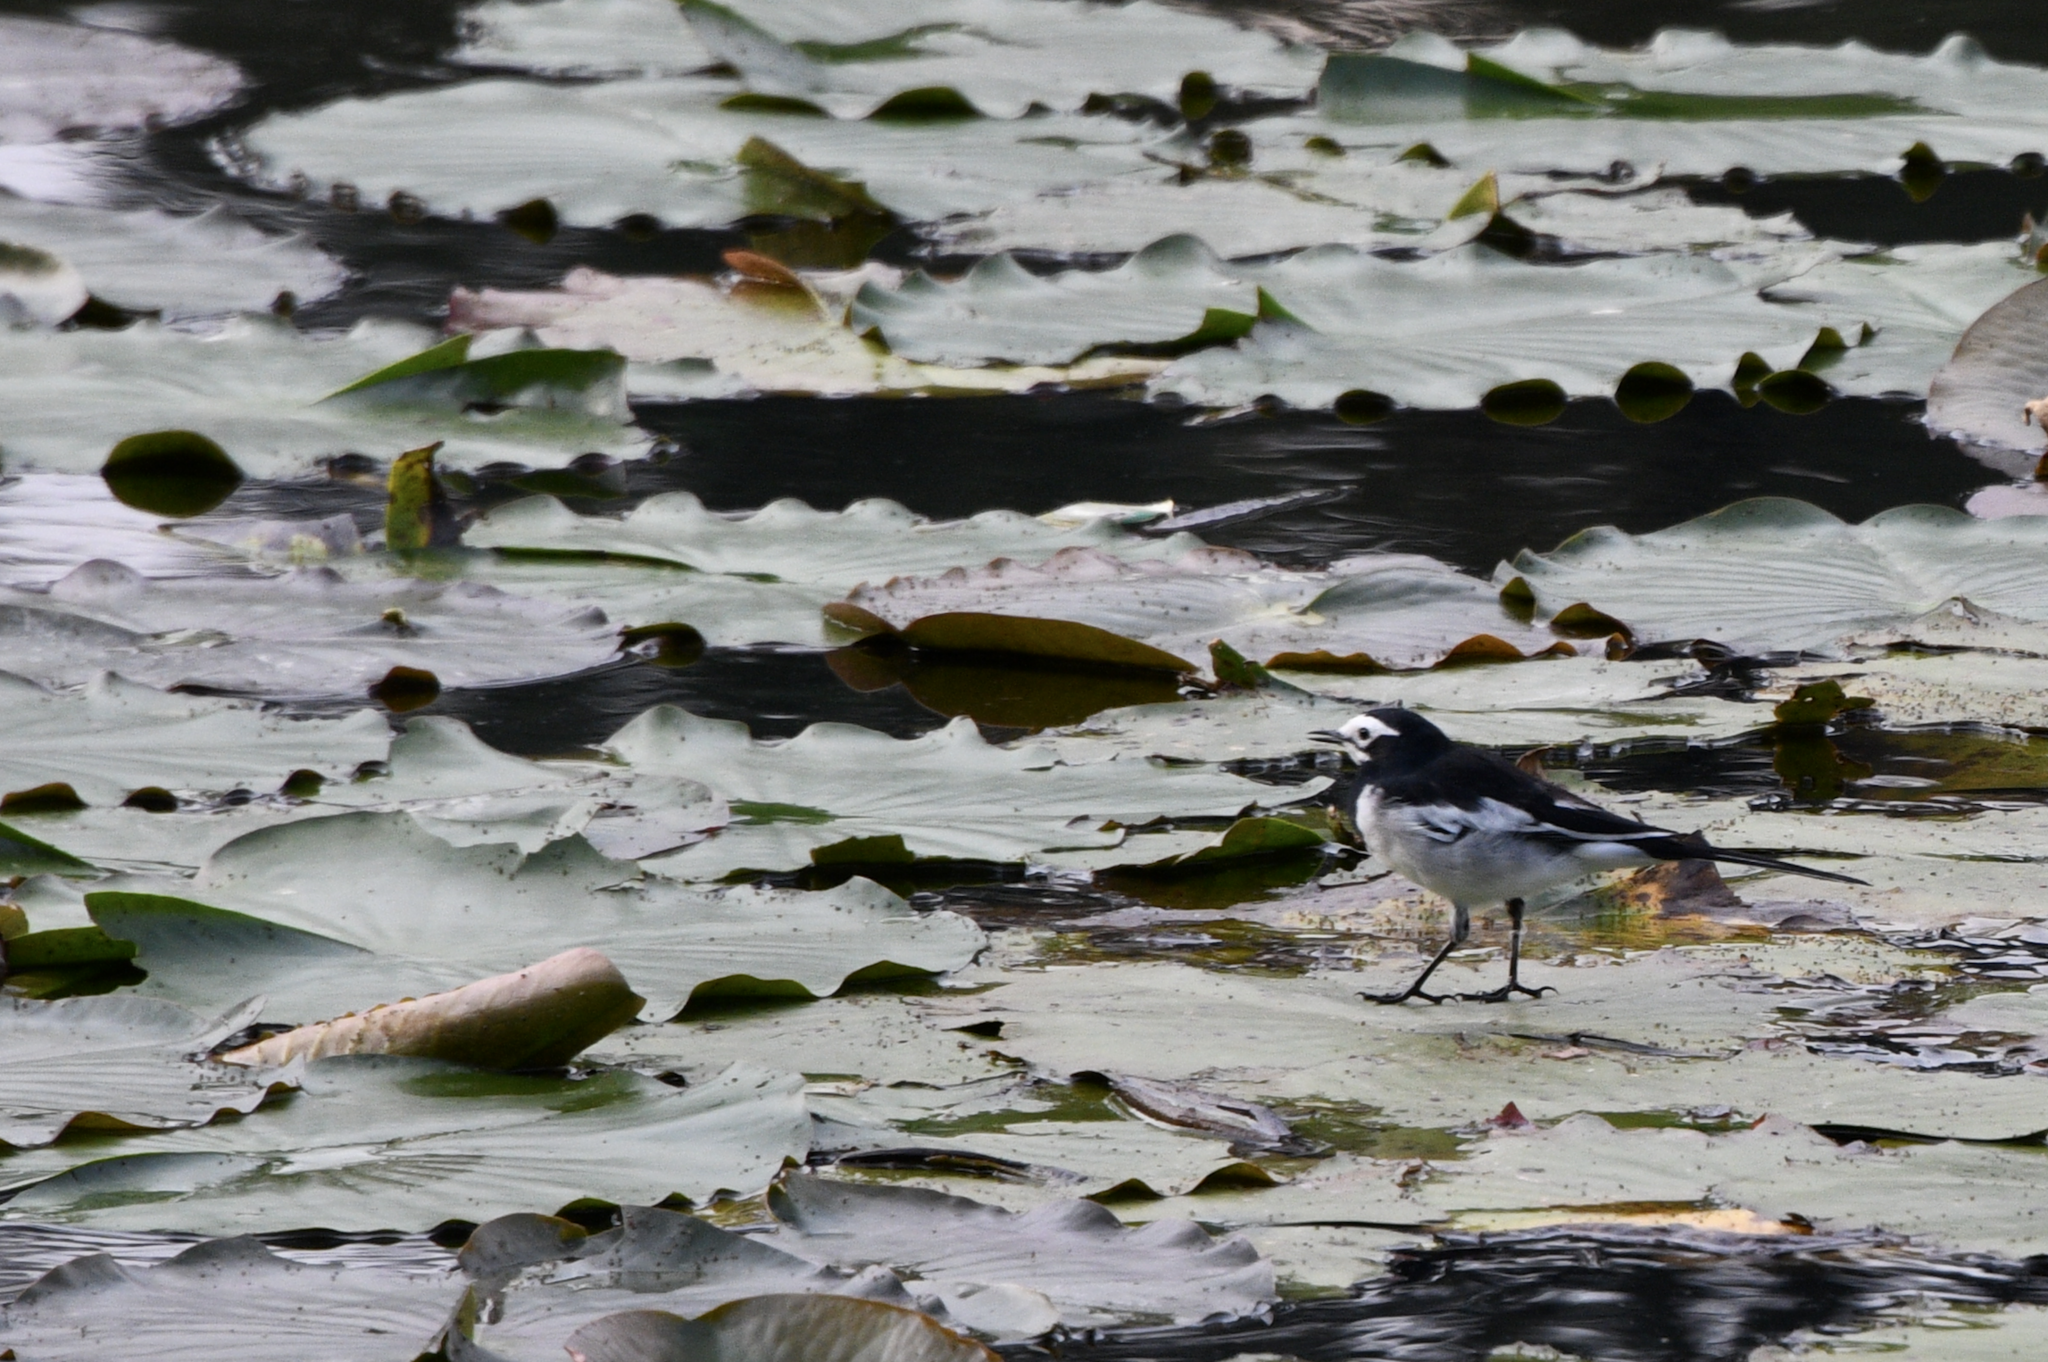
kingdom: Animalia
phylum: Chordata
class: Aves
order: Passeriformes
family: Motacillidae
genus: Motacilla
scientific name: Motacilla alba
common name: White wagtail
